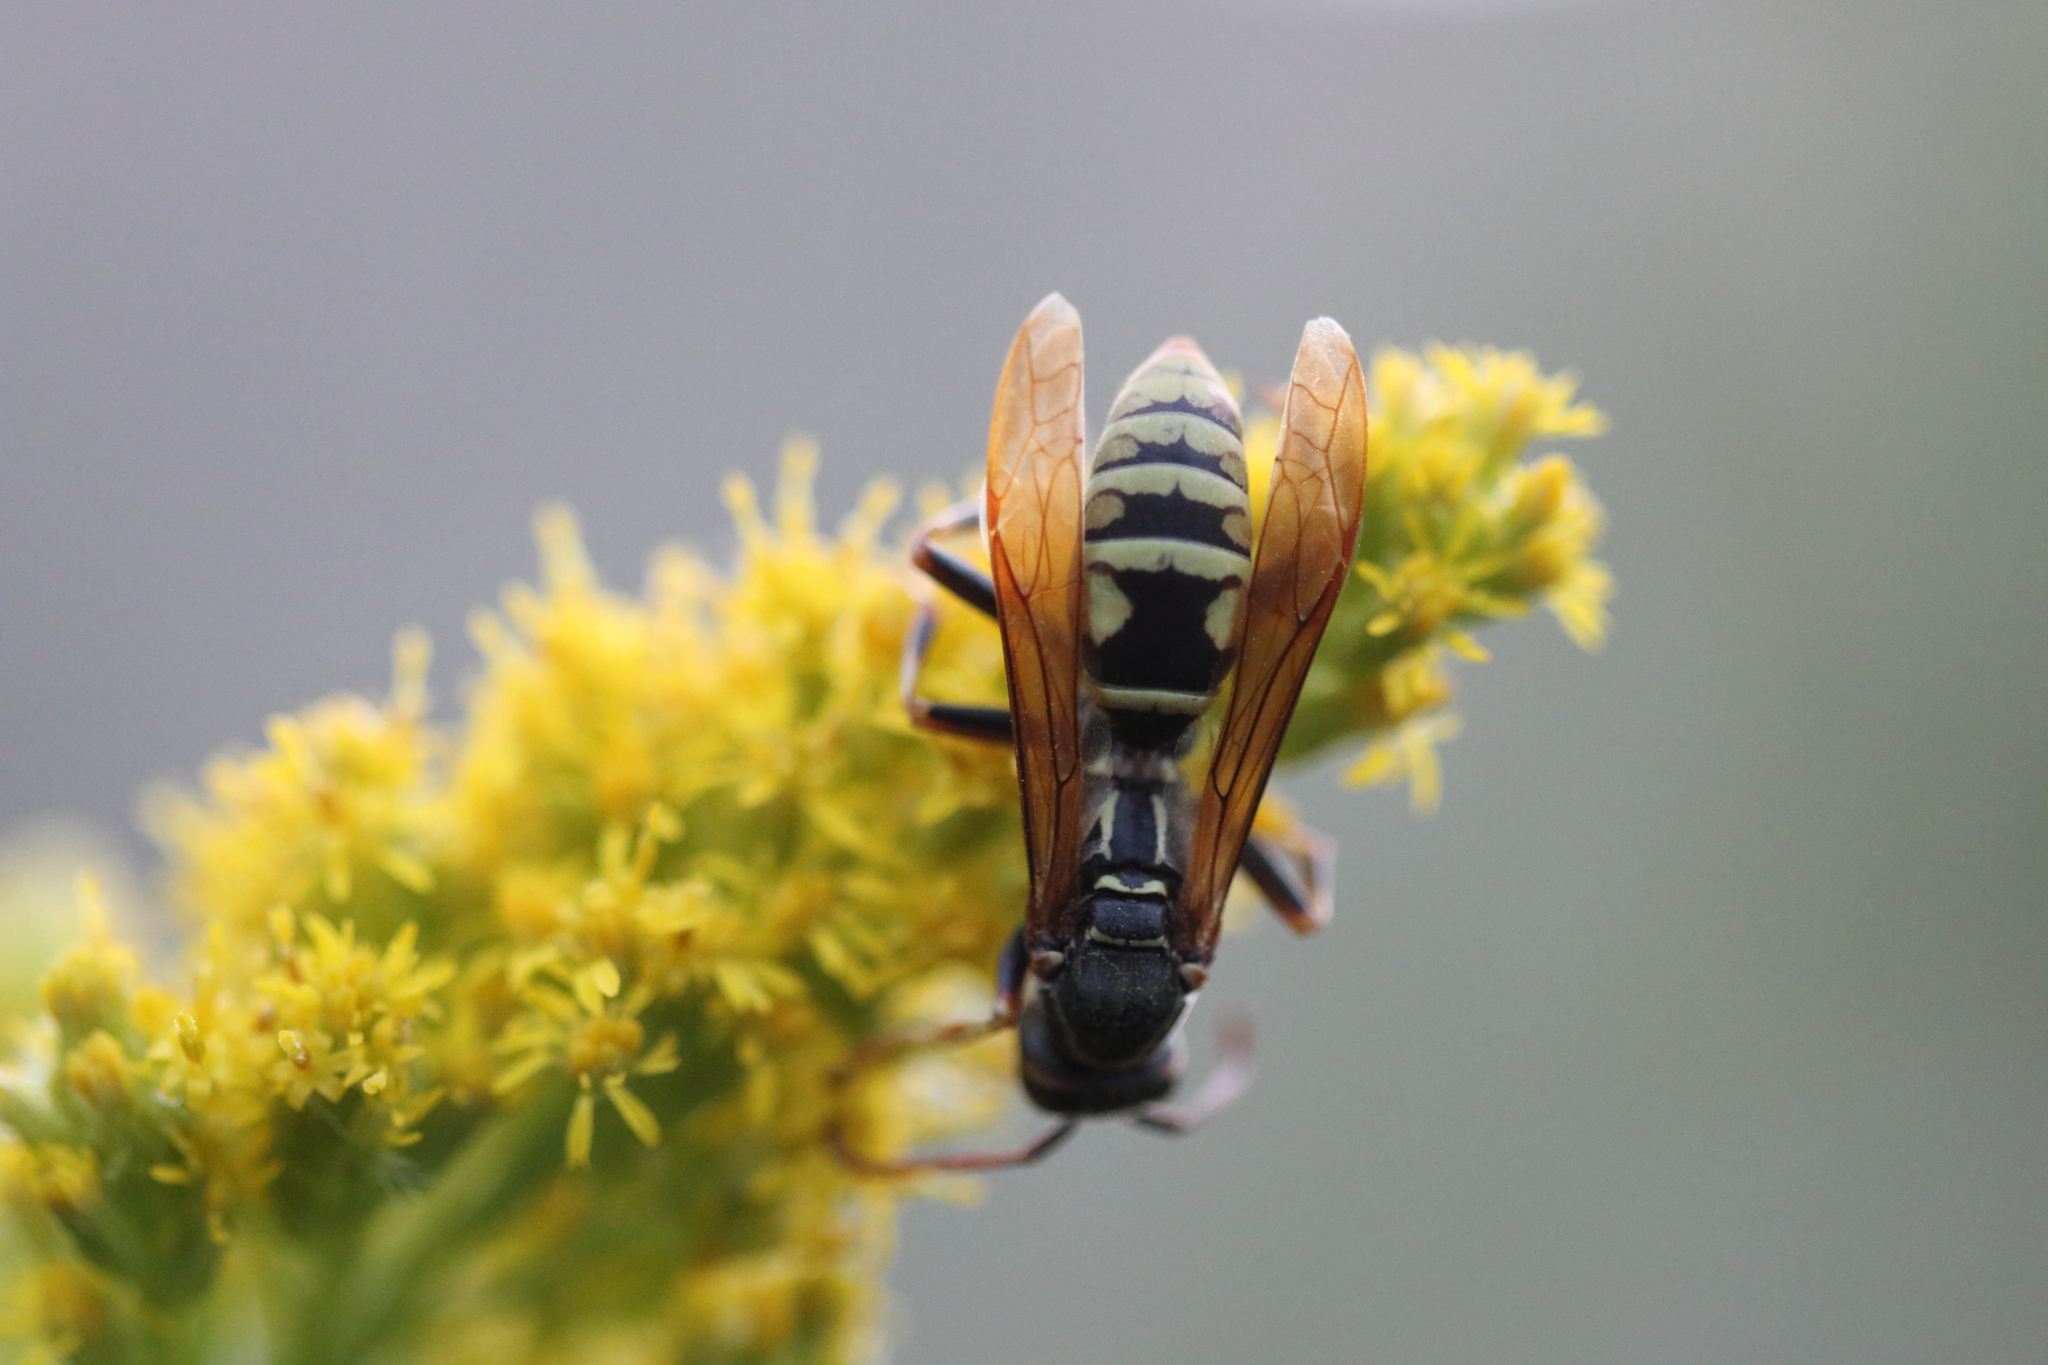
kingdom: Animalia
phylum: Arthropoda
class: Insecta
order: Hymenoptera
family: Eumenidae
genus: Polistes
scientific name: Polistes aurifer
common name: Paper wasp
